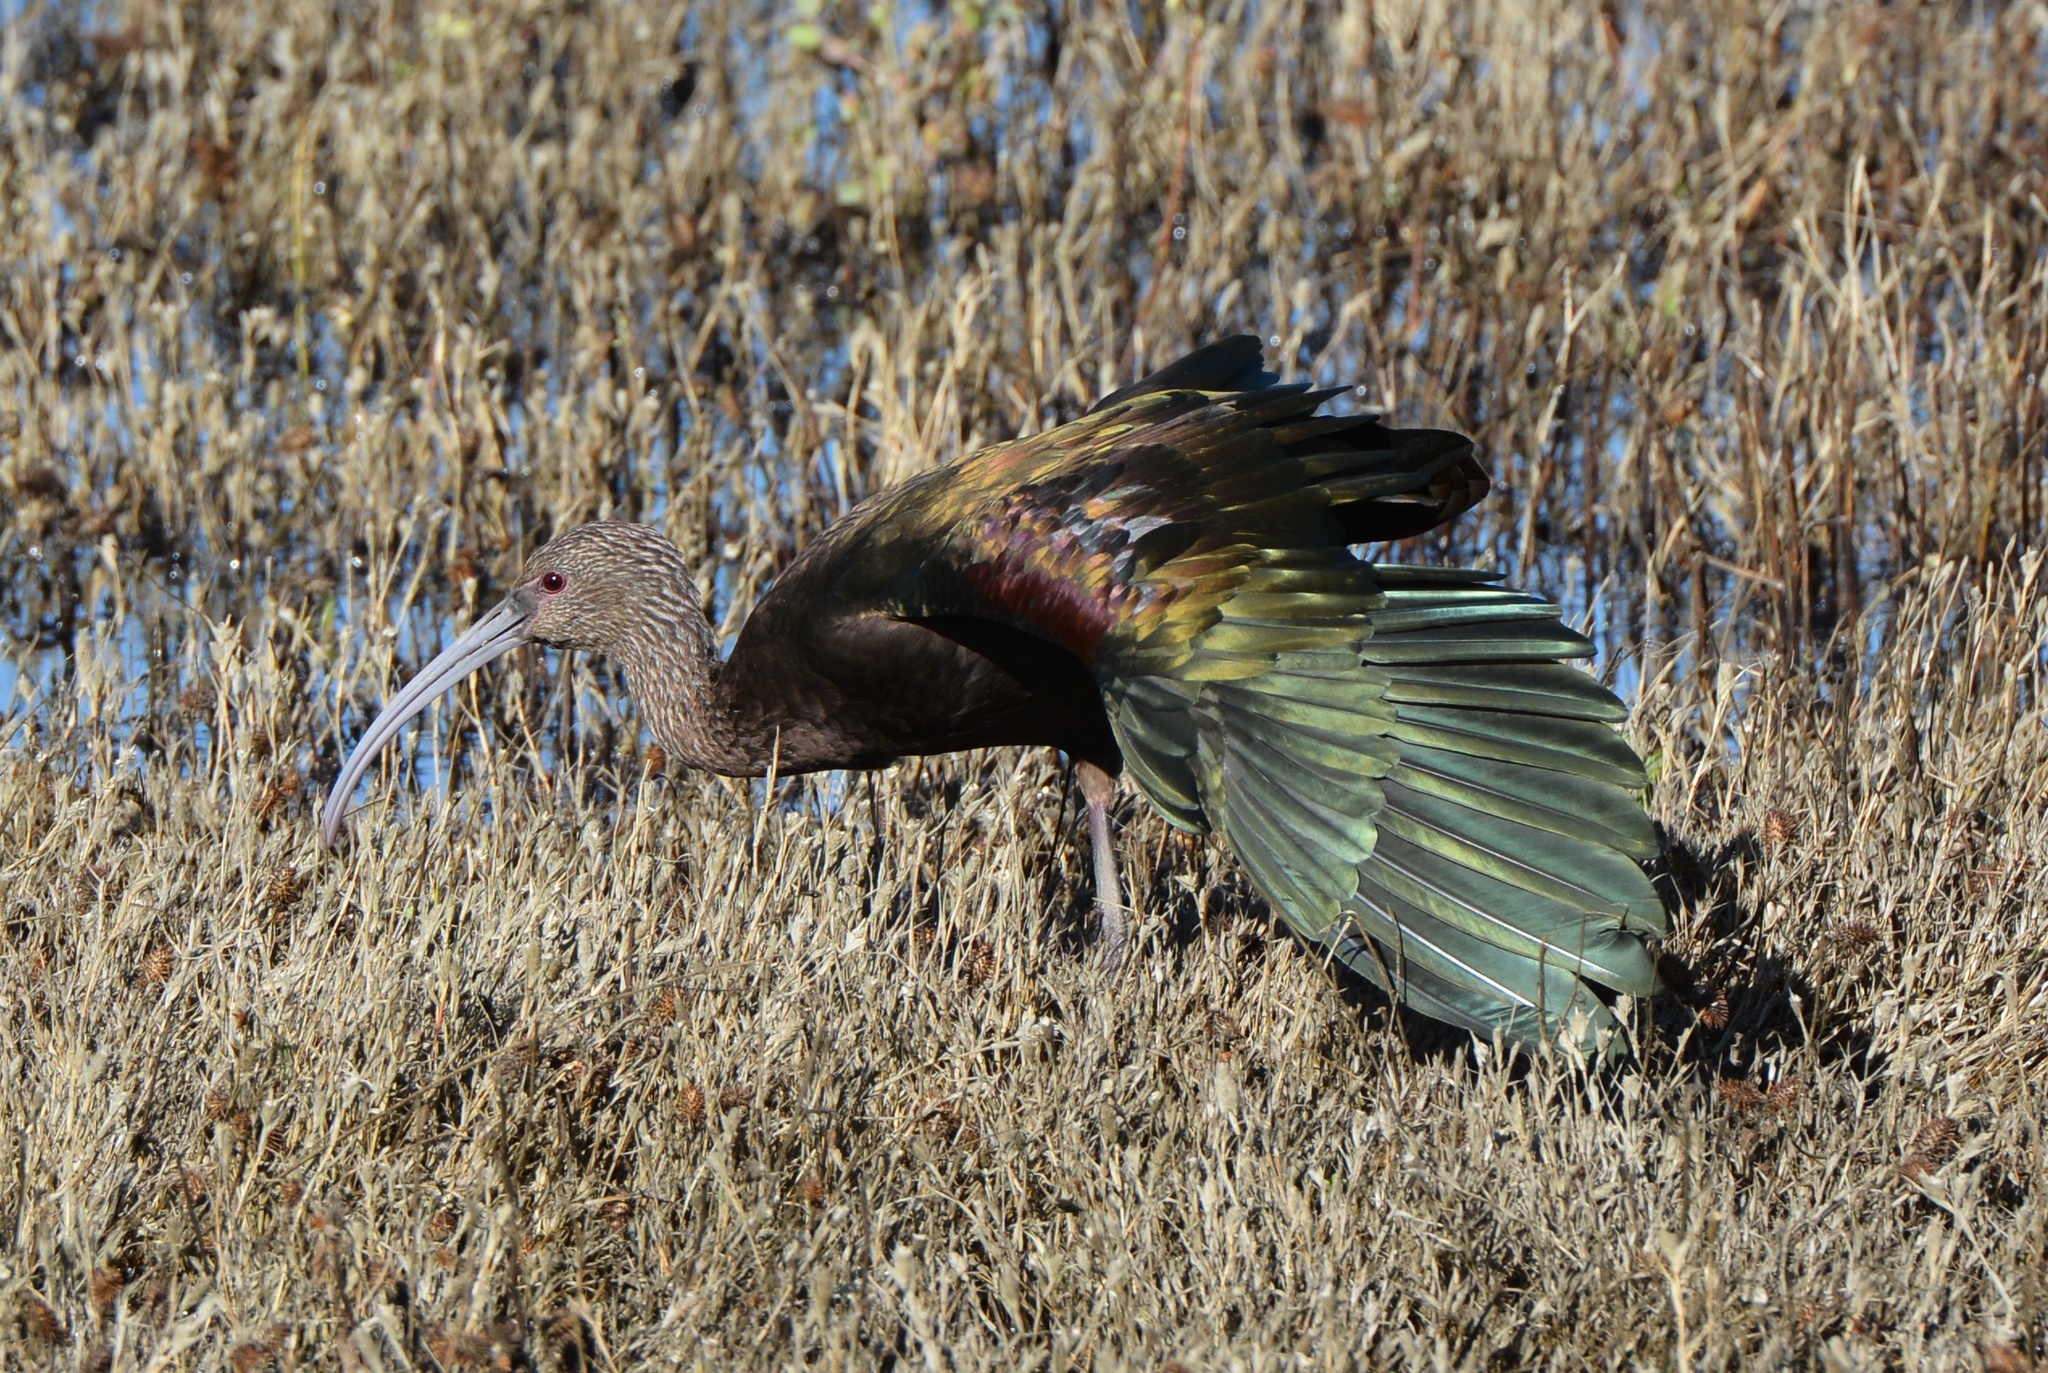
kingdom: Animalia
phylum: Chordata
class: Aves
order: Pelecaniformes
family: Threskiornithidae
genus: Plegadis
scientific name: Plegadis chihi
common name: White-faced ibis
